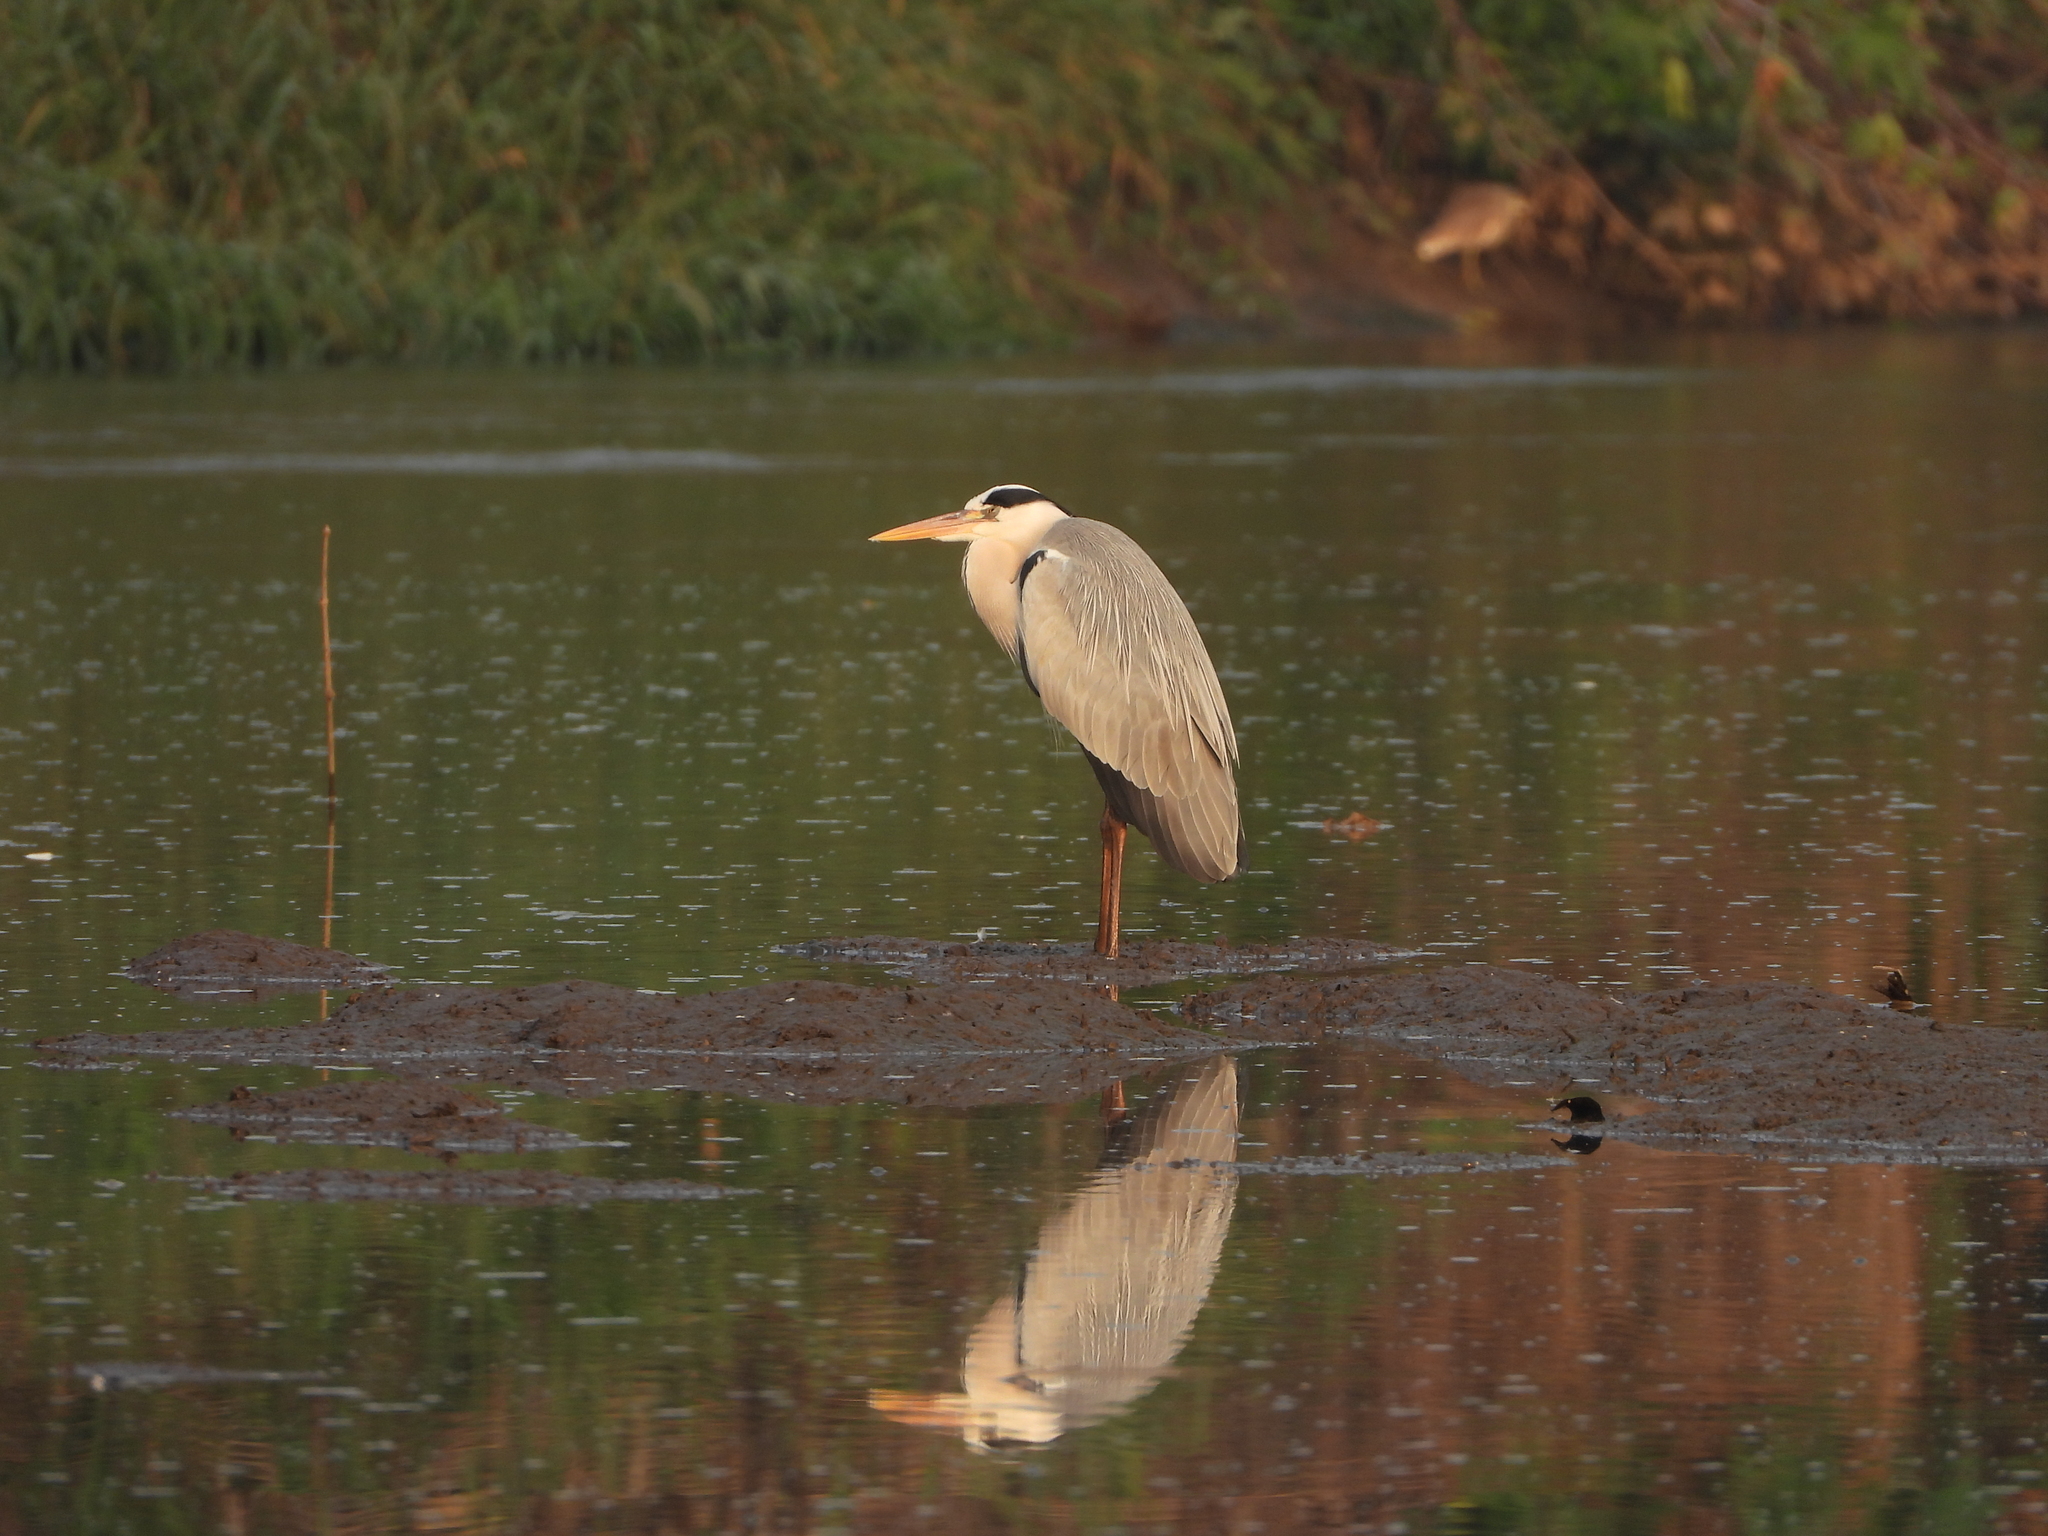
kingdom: Animalia
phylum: Chordata
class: Aves
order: Pelecaniformes
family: Ardeidae
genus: Ardea
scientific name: Ardea cinerea
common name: Grey heron
